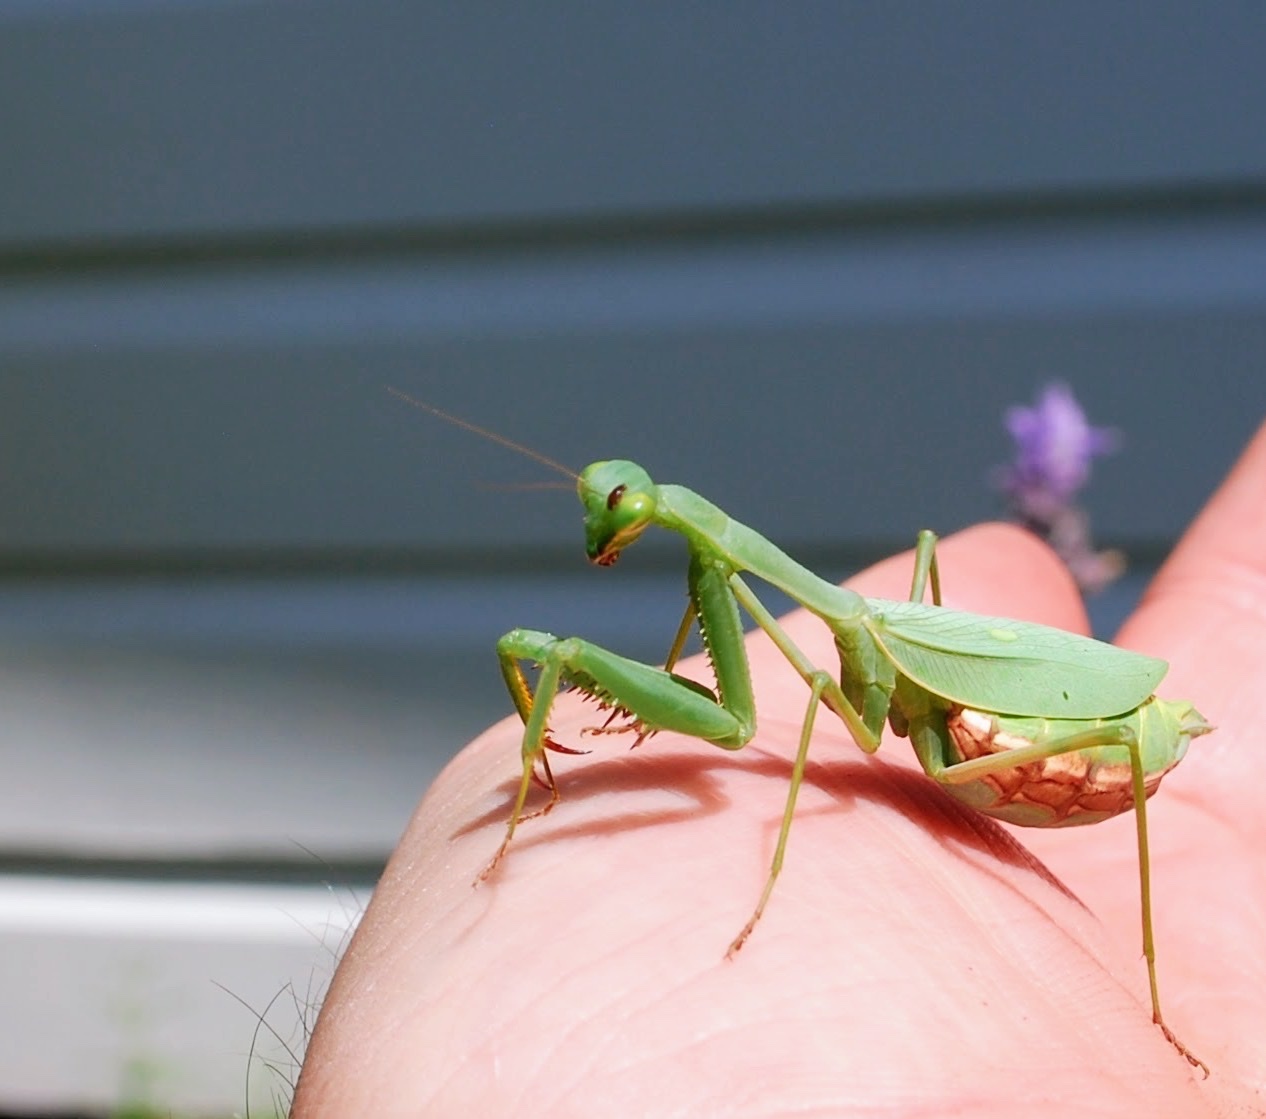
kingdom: Animalia
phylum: Arthropoda
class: Insecta
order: Mantodea
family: Miomantidae
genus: Miomantis
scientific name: Miomantis caffra
